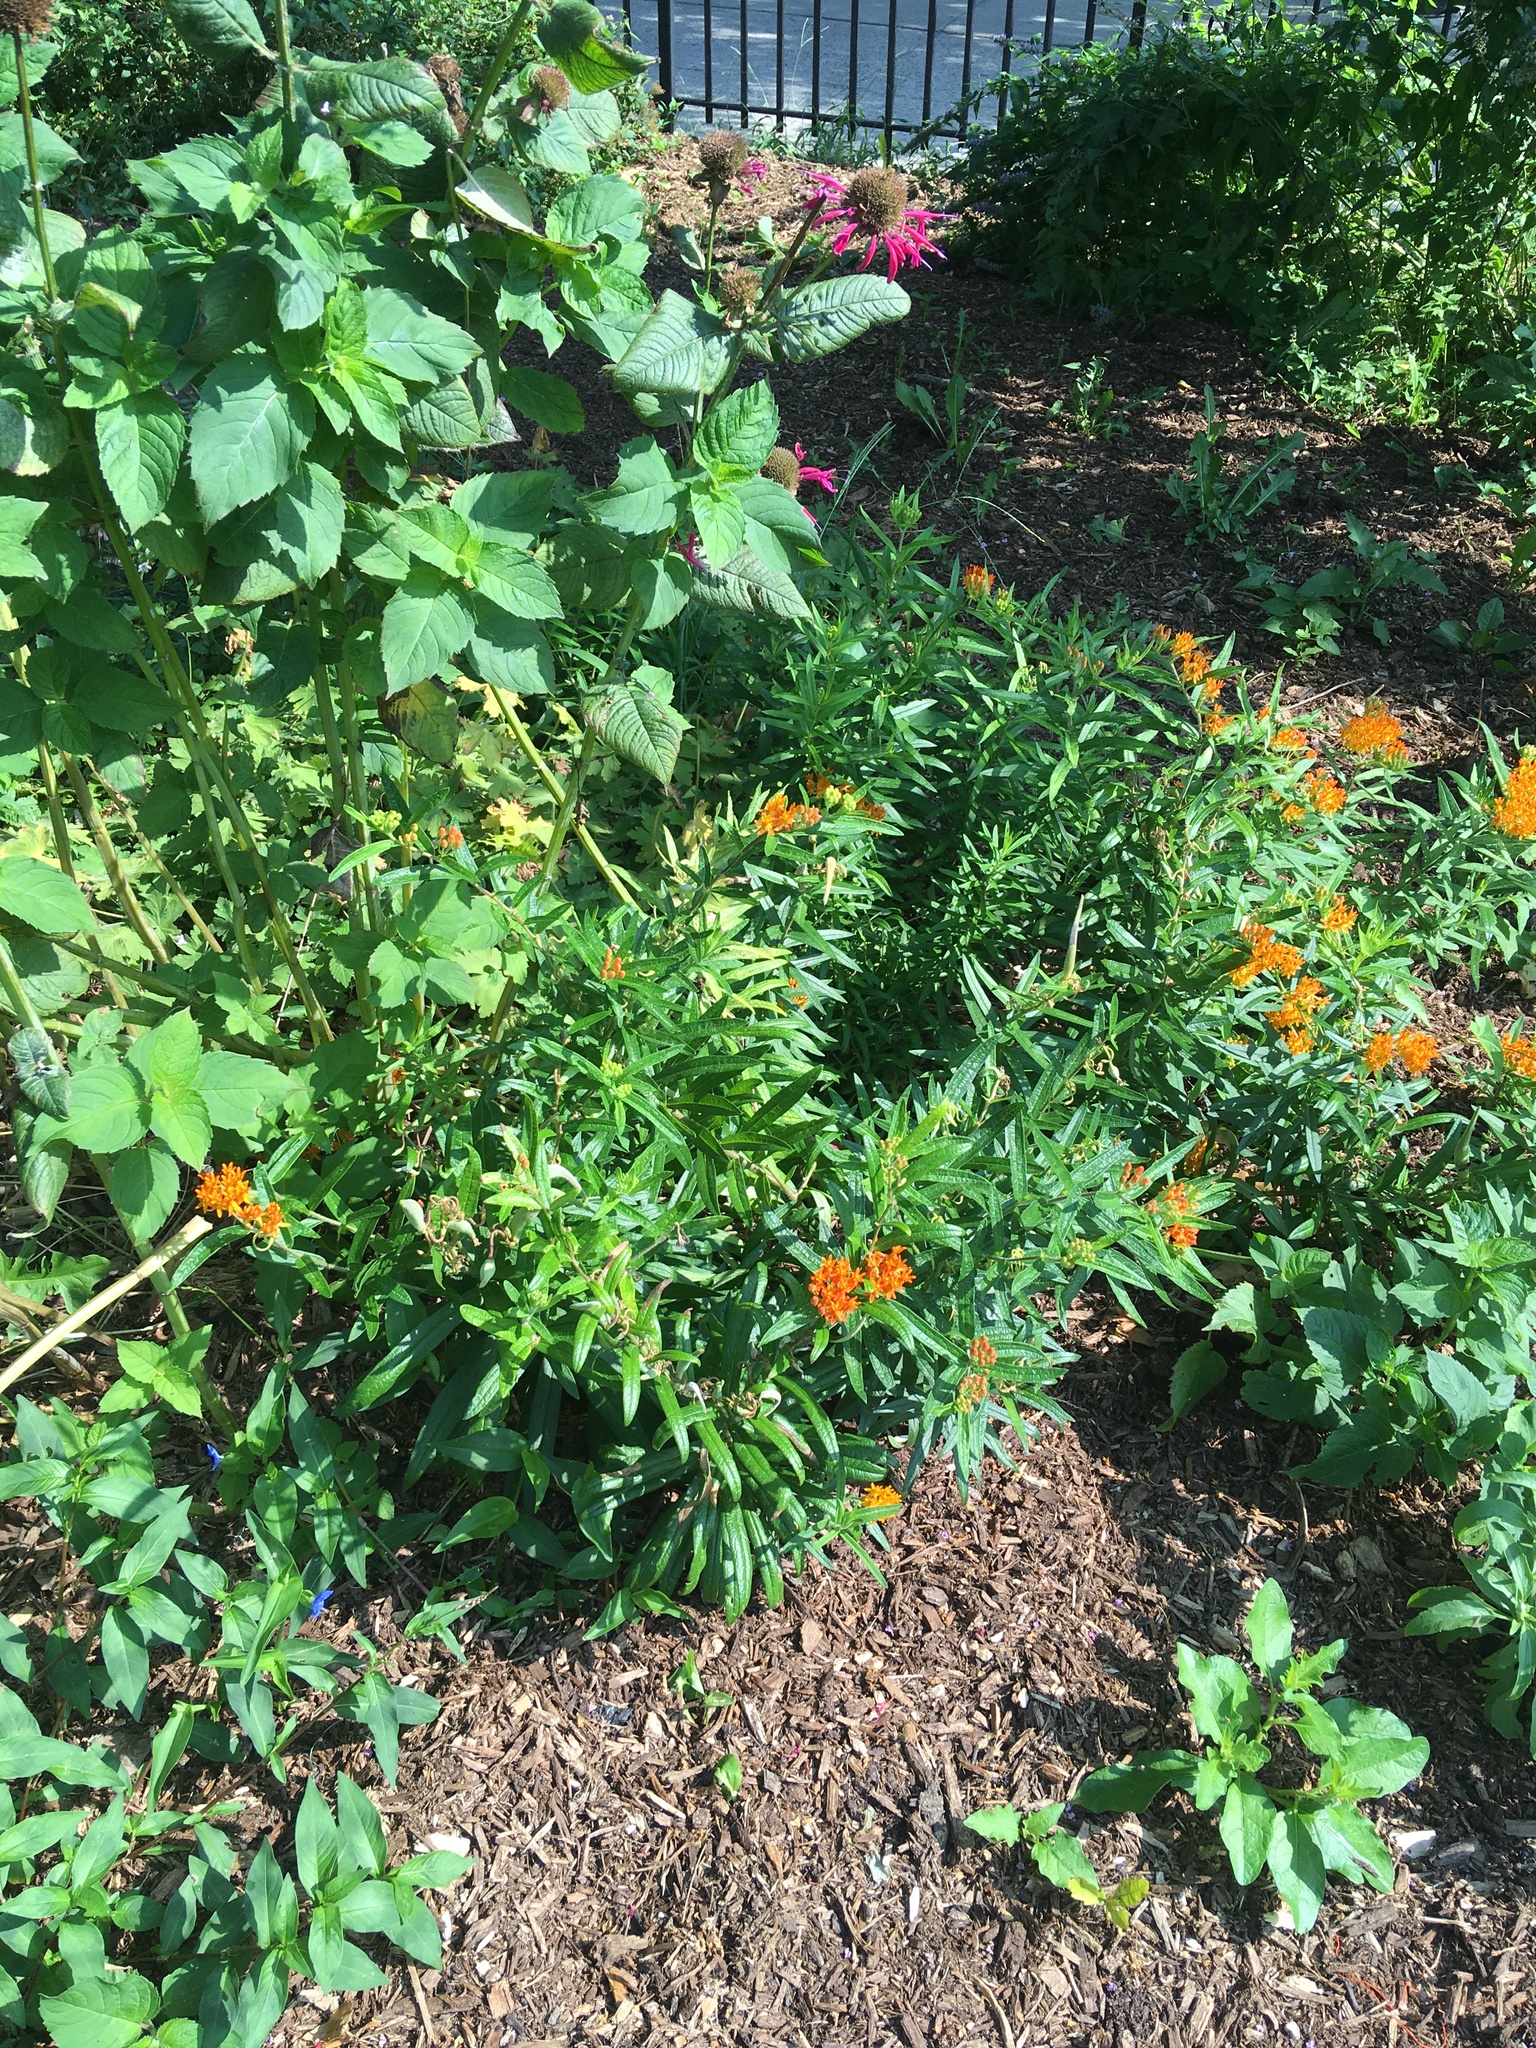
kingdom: Plantae
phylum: Tracheophyta
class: Magnoliopsida
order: Gentianales
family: Apocynaceae
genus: Asclepias
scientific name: Asclepias tuberosa
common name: Butterfly milkweed
